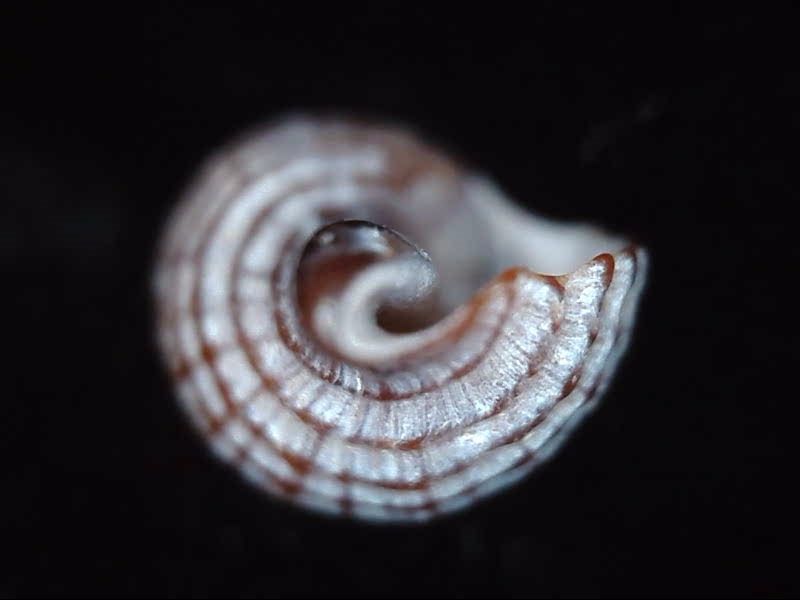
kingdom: Animalia
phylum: Mollusca
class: Gastropoda
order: Neogastropoda
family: Muricidae
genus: Xymene
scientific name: Xymene plebeius
